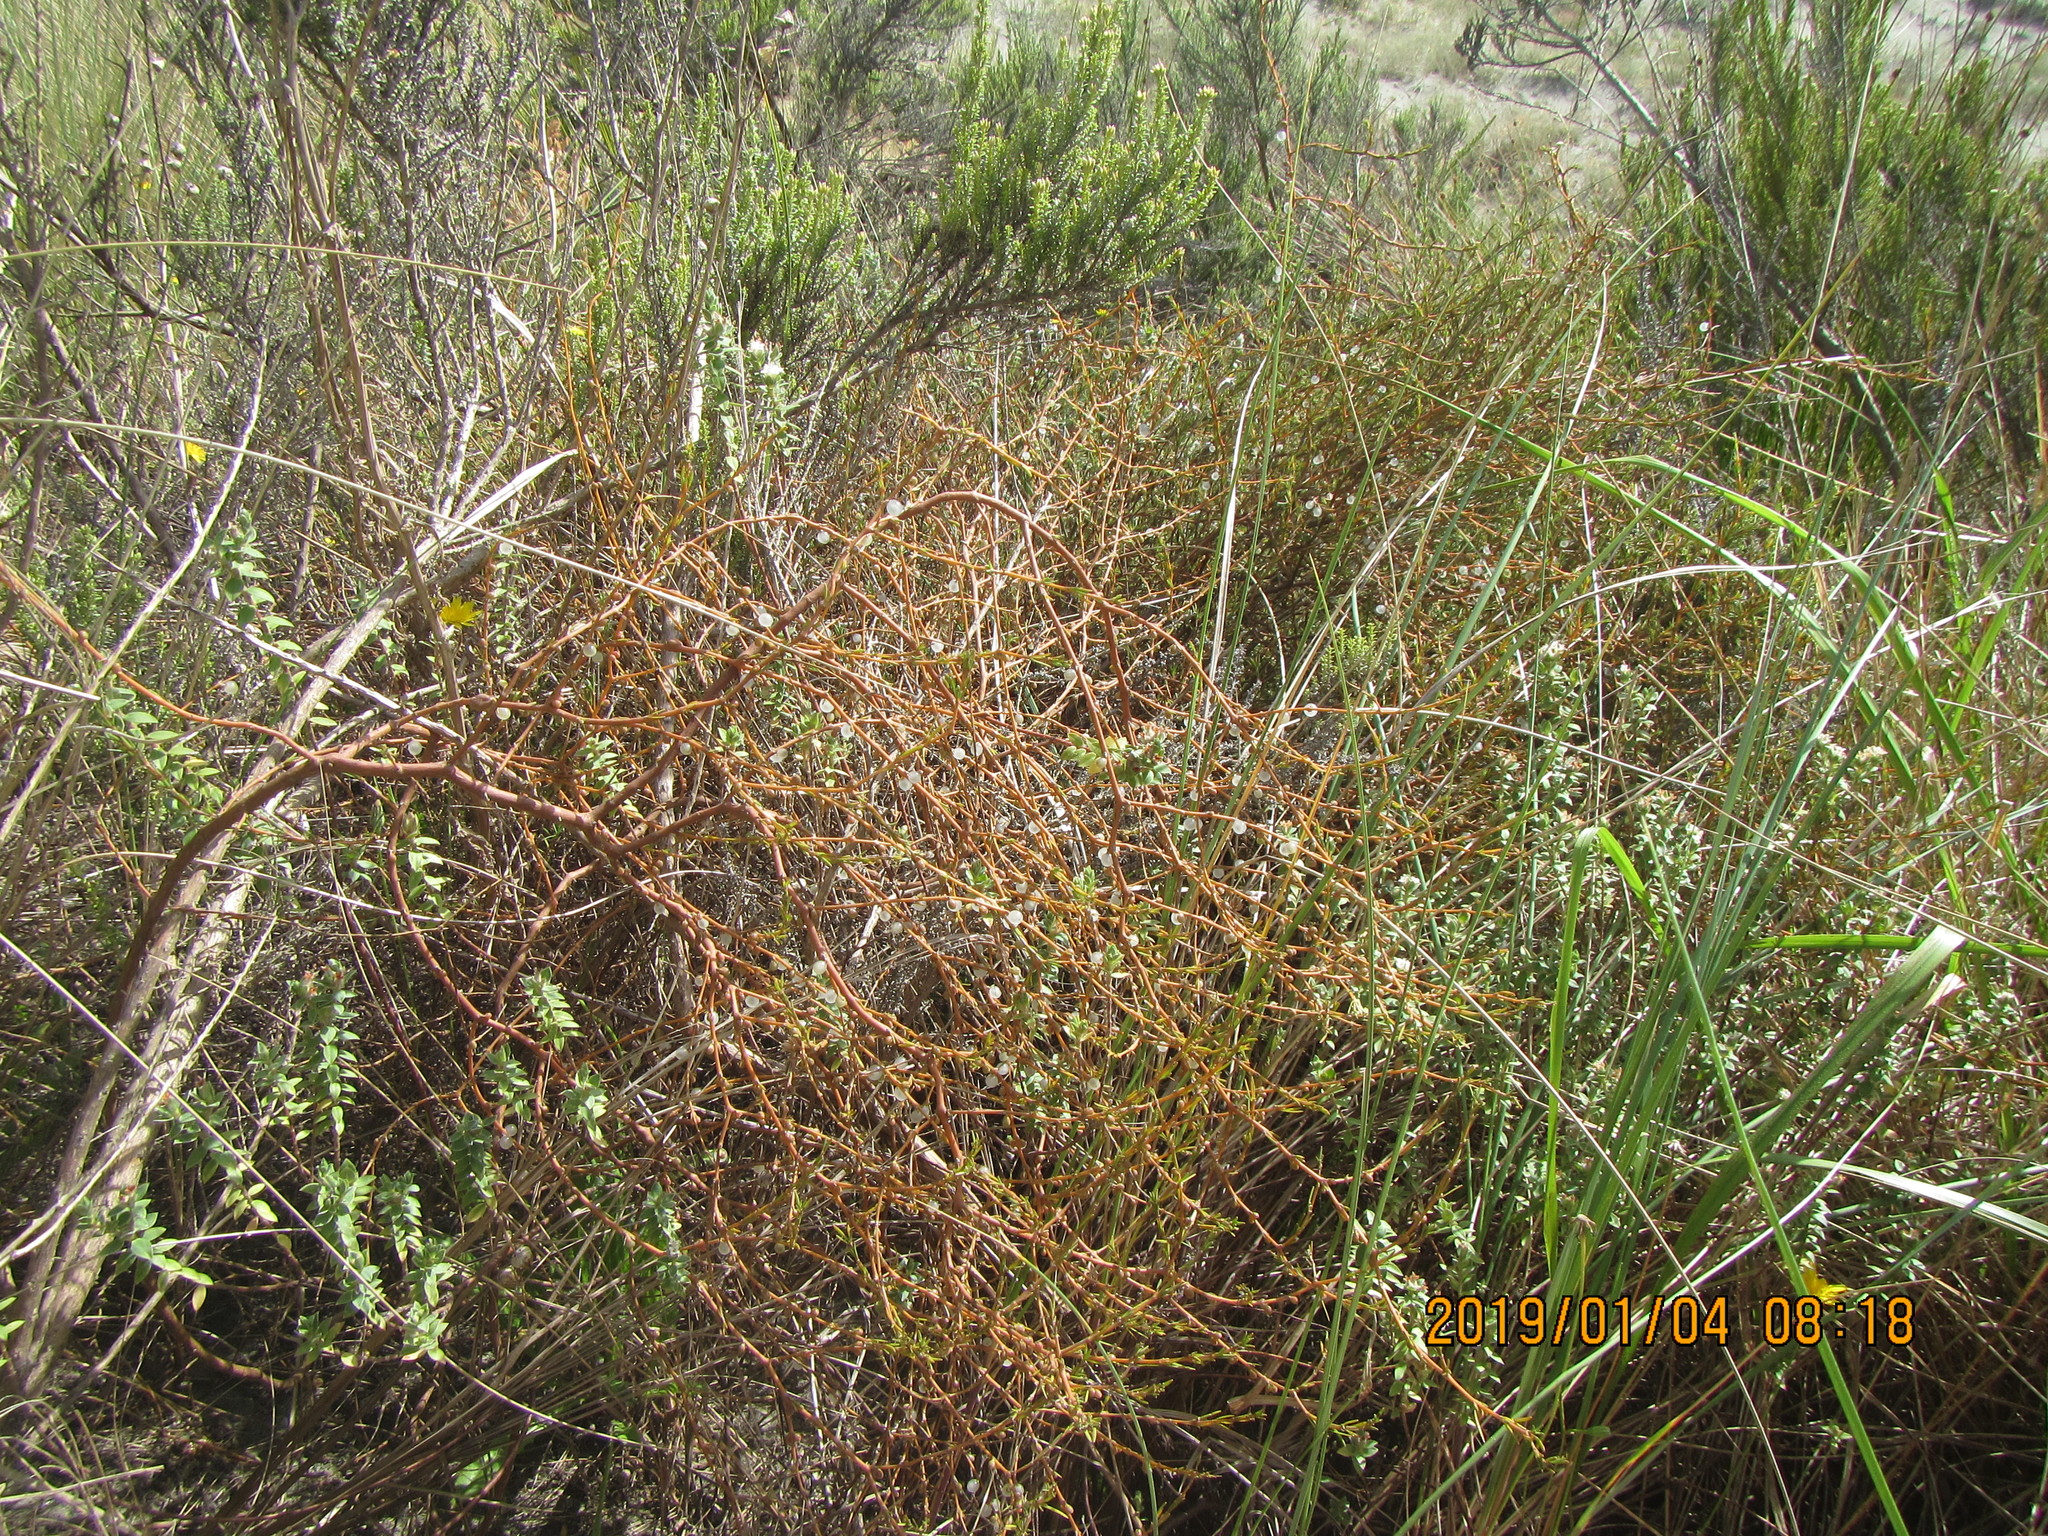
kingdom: Plantae
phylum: Tracheophyta
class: Magnoliopsida
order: Gentianales
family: Rubiaceae
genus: Coprosma
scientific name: Coprosma acerosa
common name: Sand coprosma
